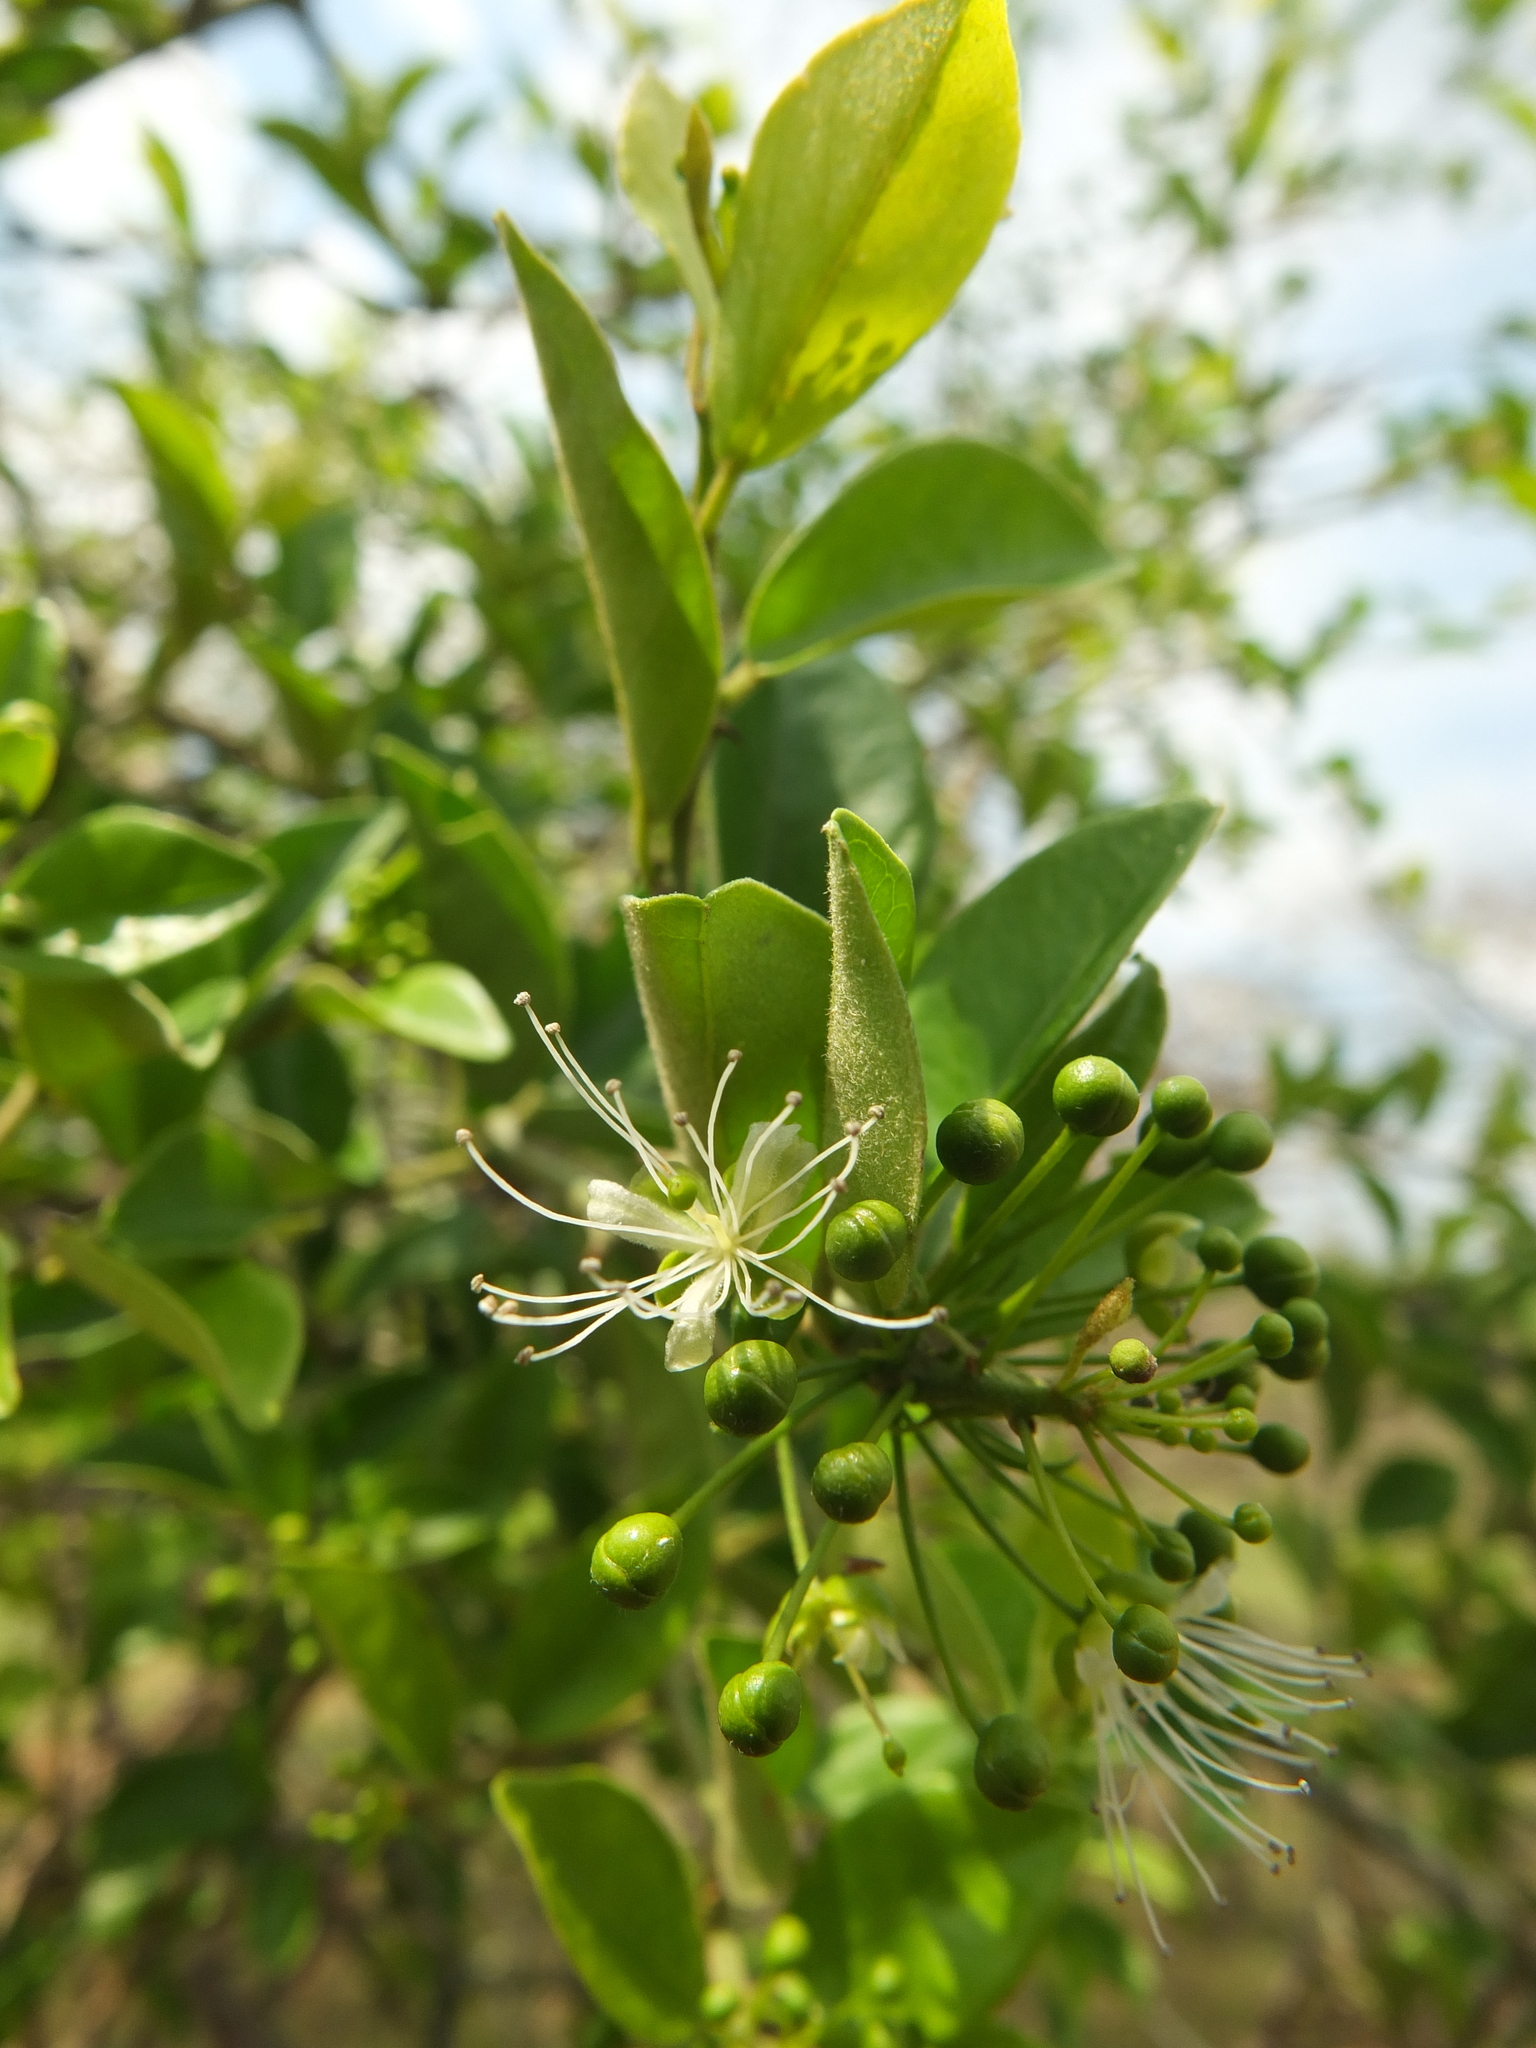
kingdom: Plantae
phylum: Tracheophyta
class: Magnoliopsida
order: Brassicales
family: Capparaceae
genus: Capparis
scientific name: Capparis sepiaria
